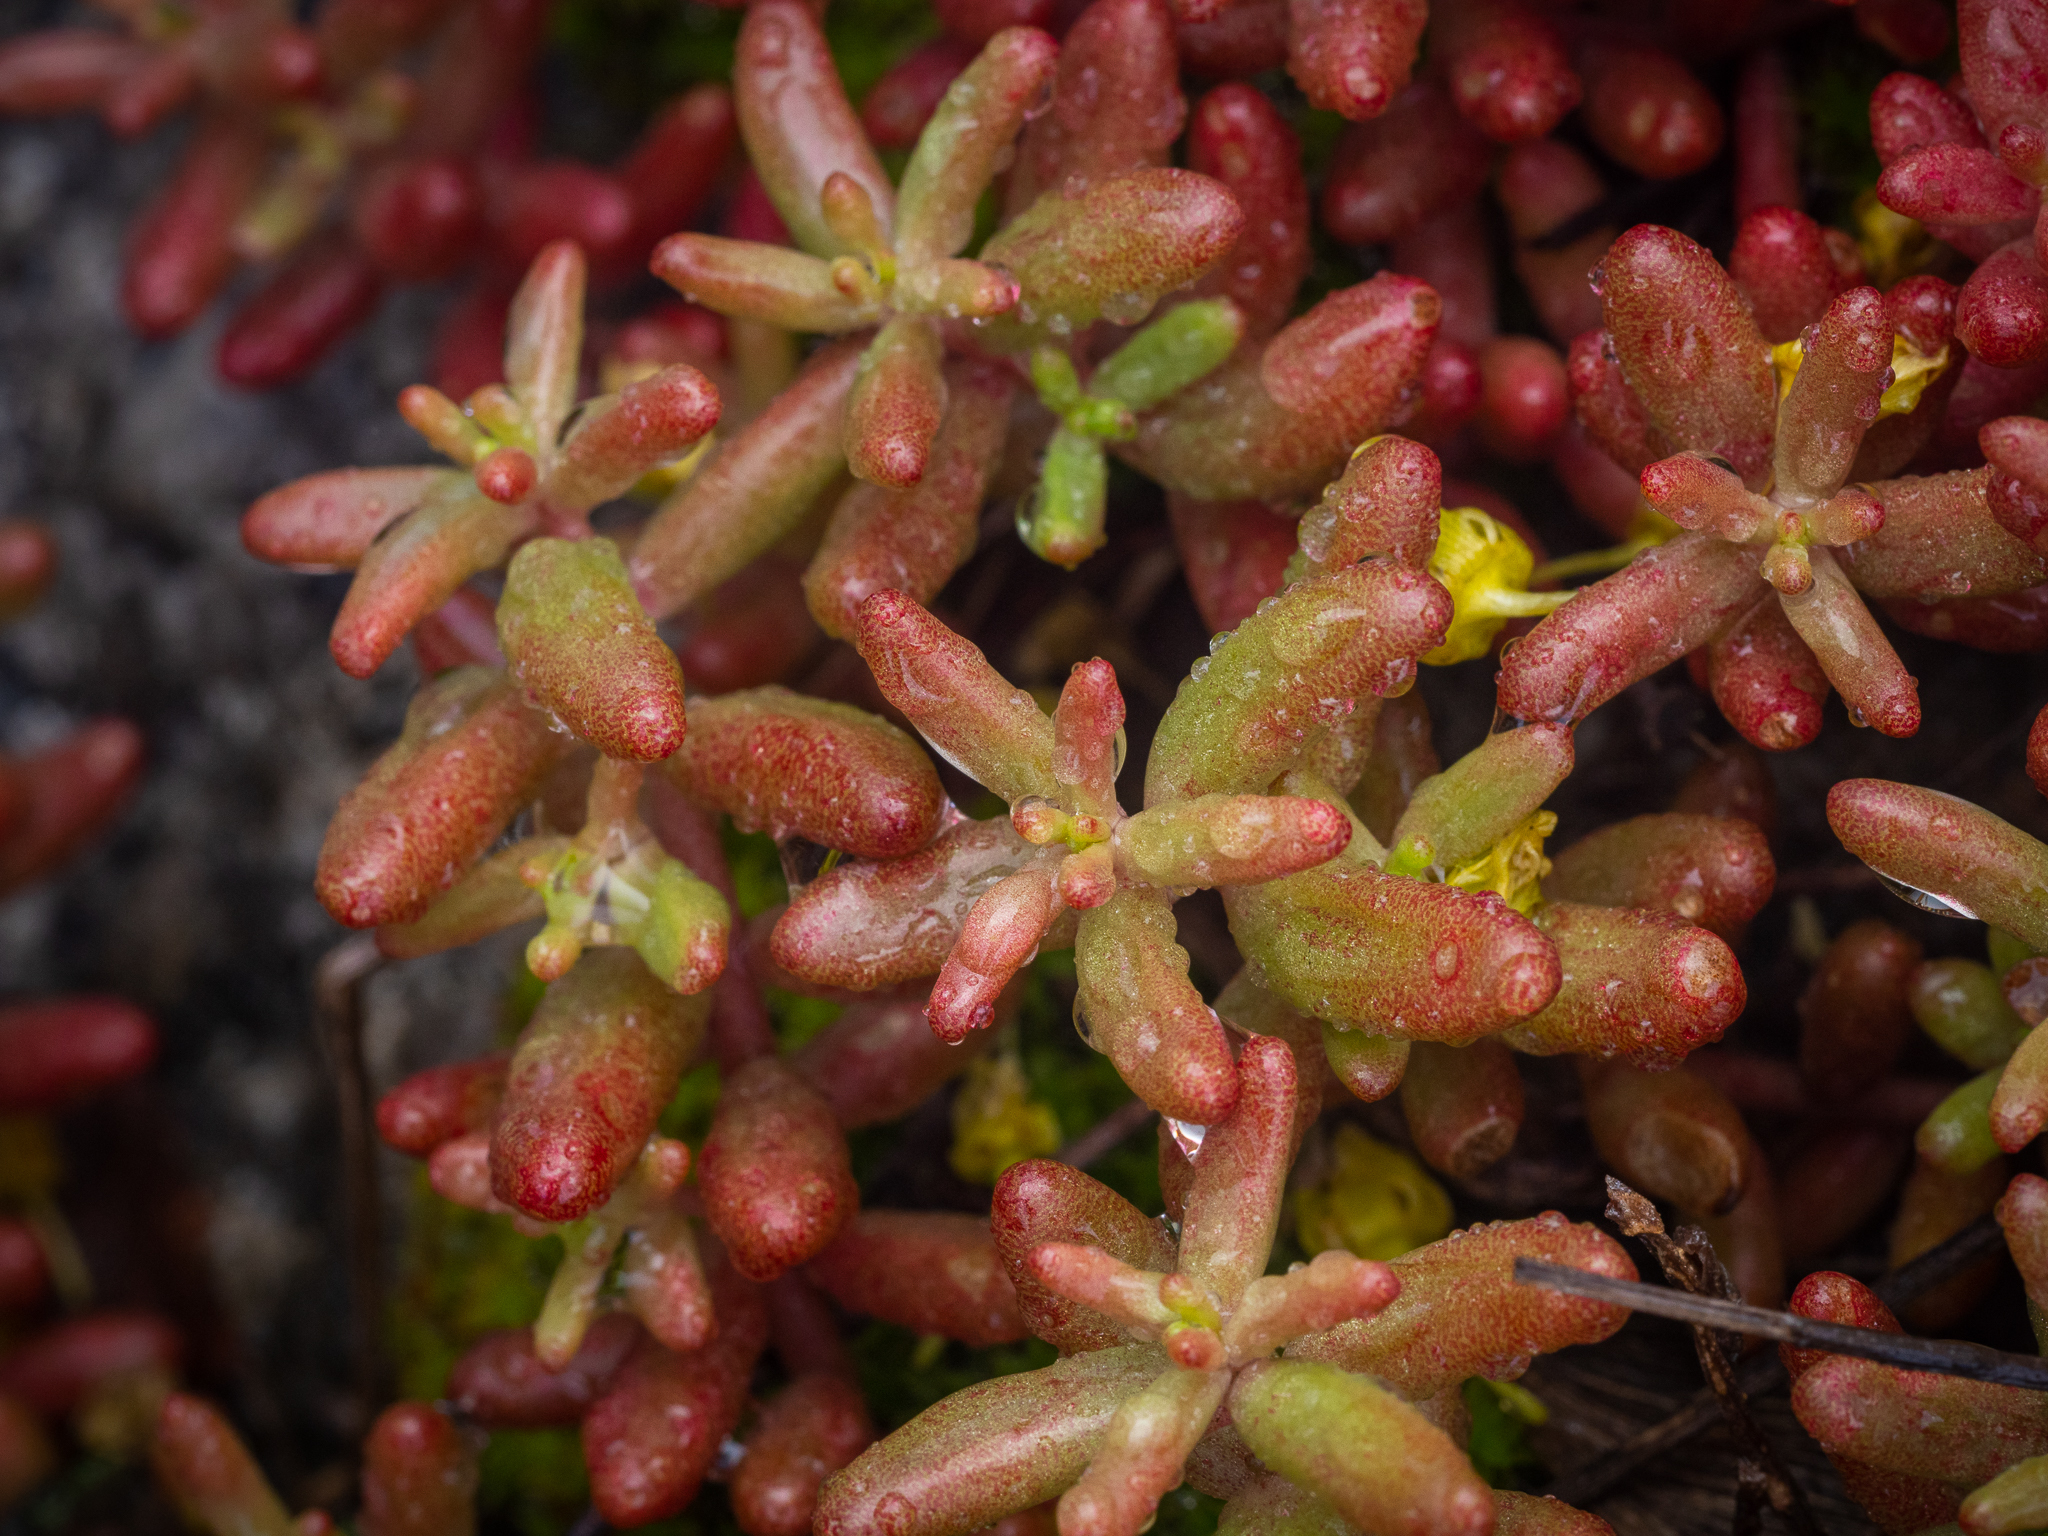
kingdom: Plantae
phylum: Tracheophyta
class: Magnoliopsida
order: Saxifragales
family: Crassulaceae
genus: Sedum
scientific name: Sedum album
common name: White stonecrop
